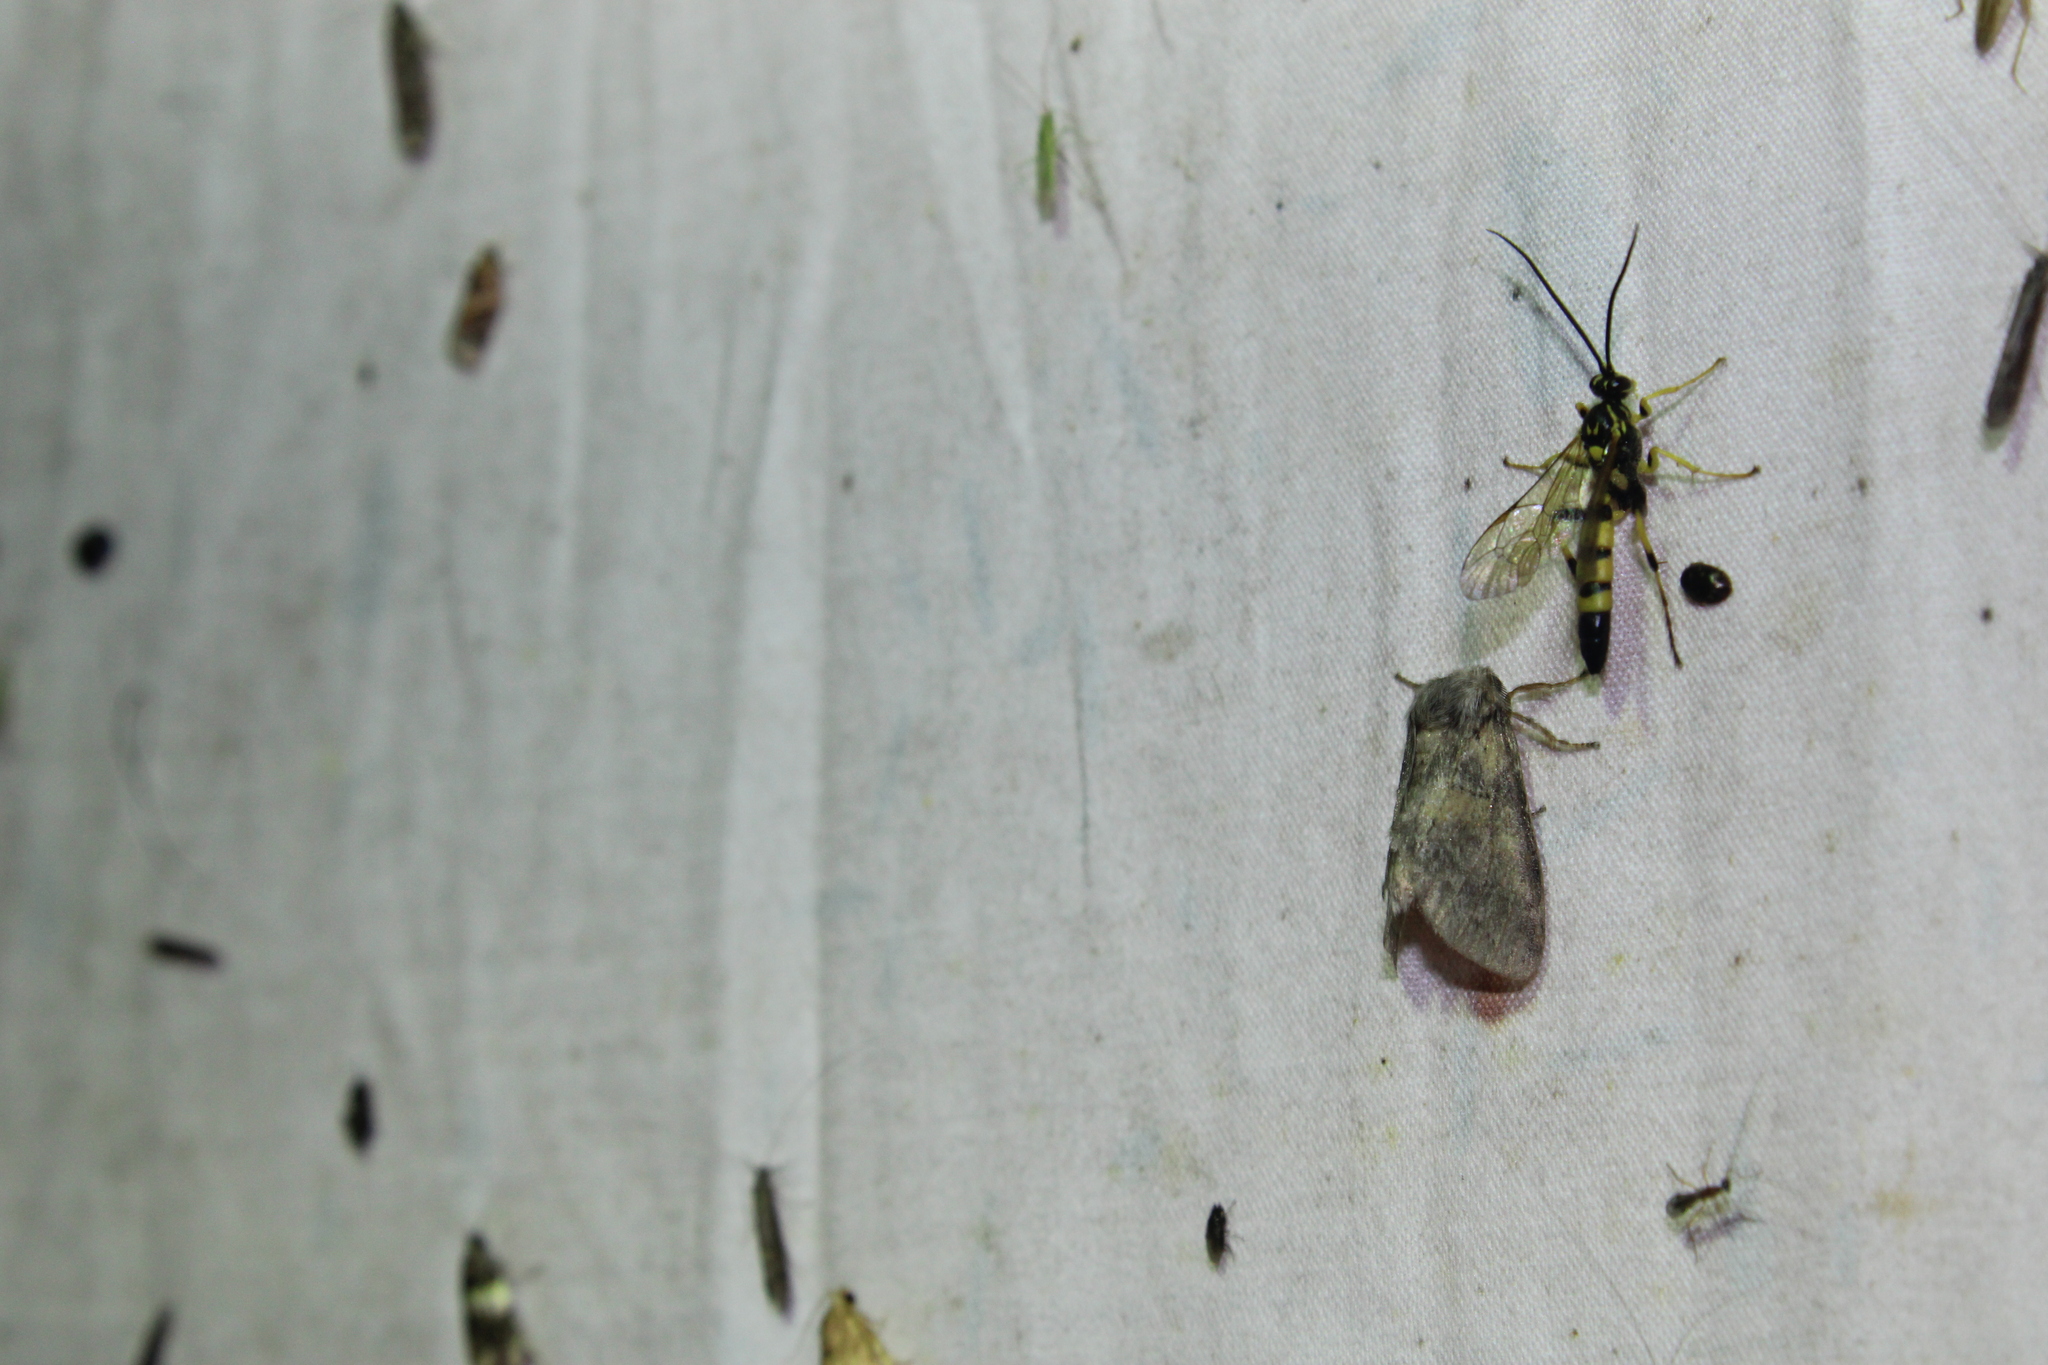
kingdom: Animalia
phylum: Arthropoda
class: Insecta
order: Lepidoptera
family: Notodontidae
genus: Gluphisia
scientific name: Gluphisia septentrionis
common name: Common gluphisia
